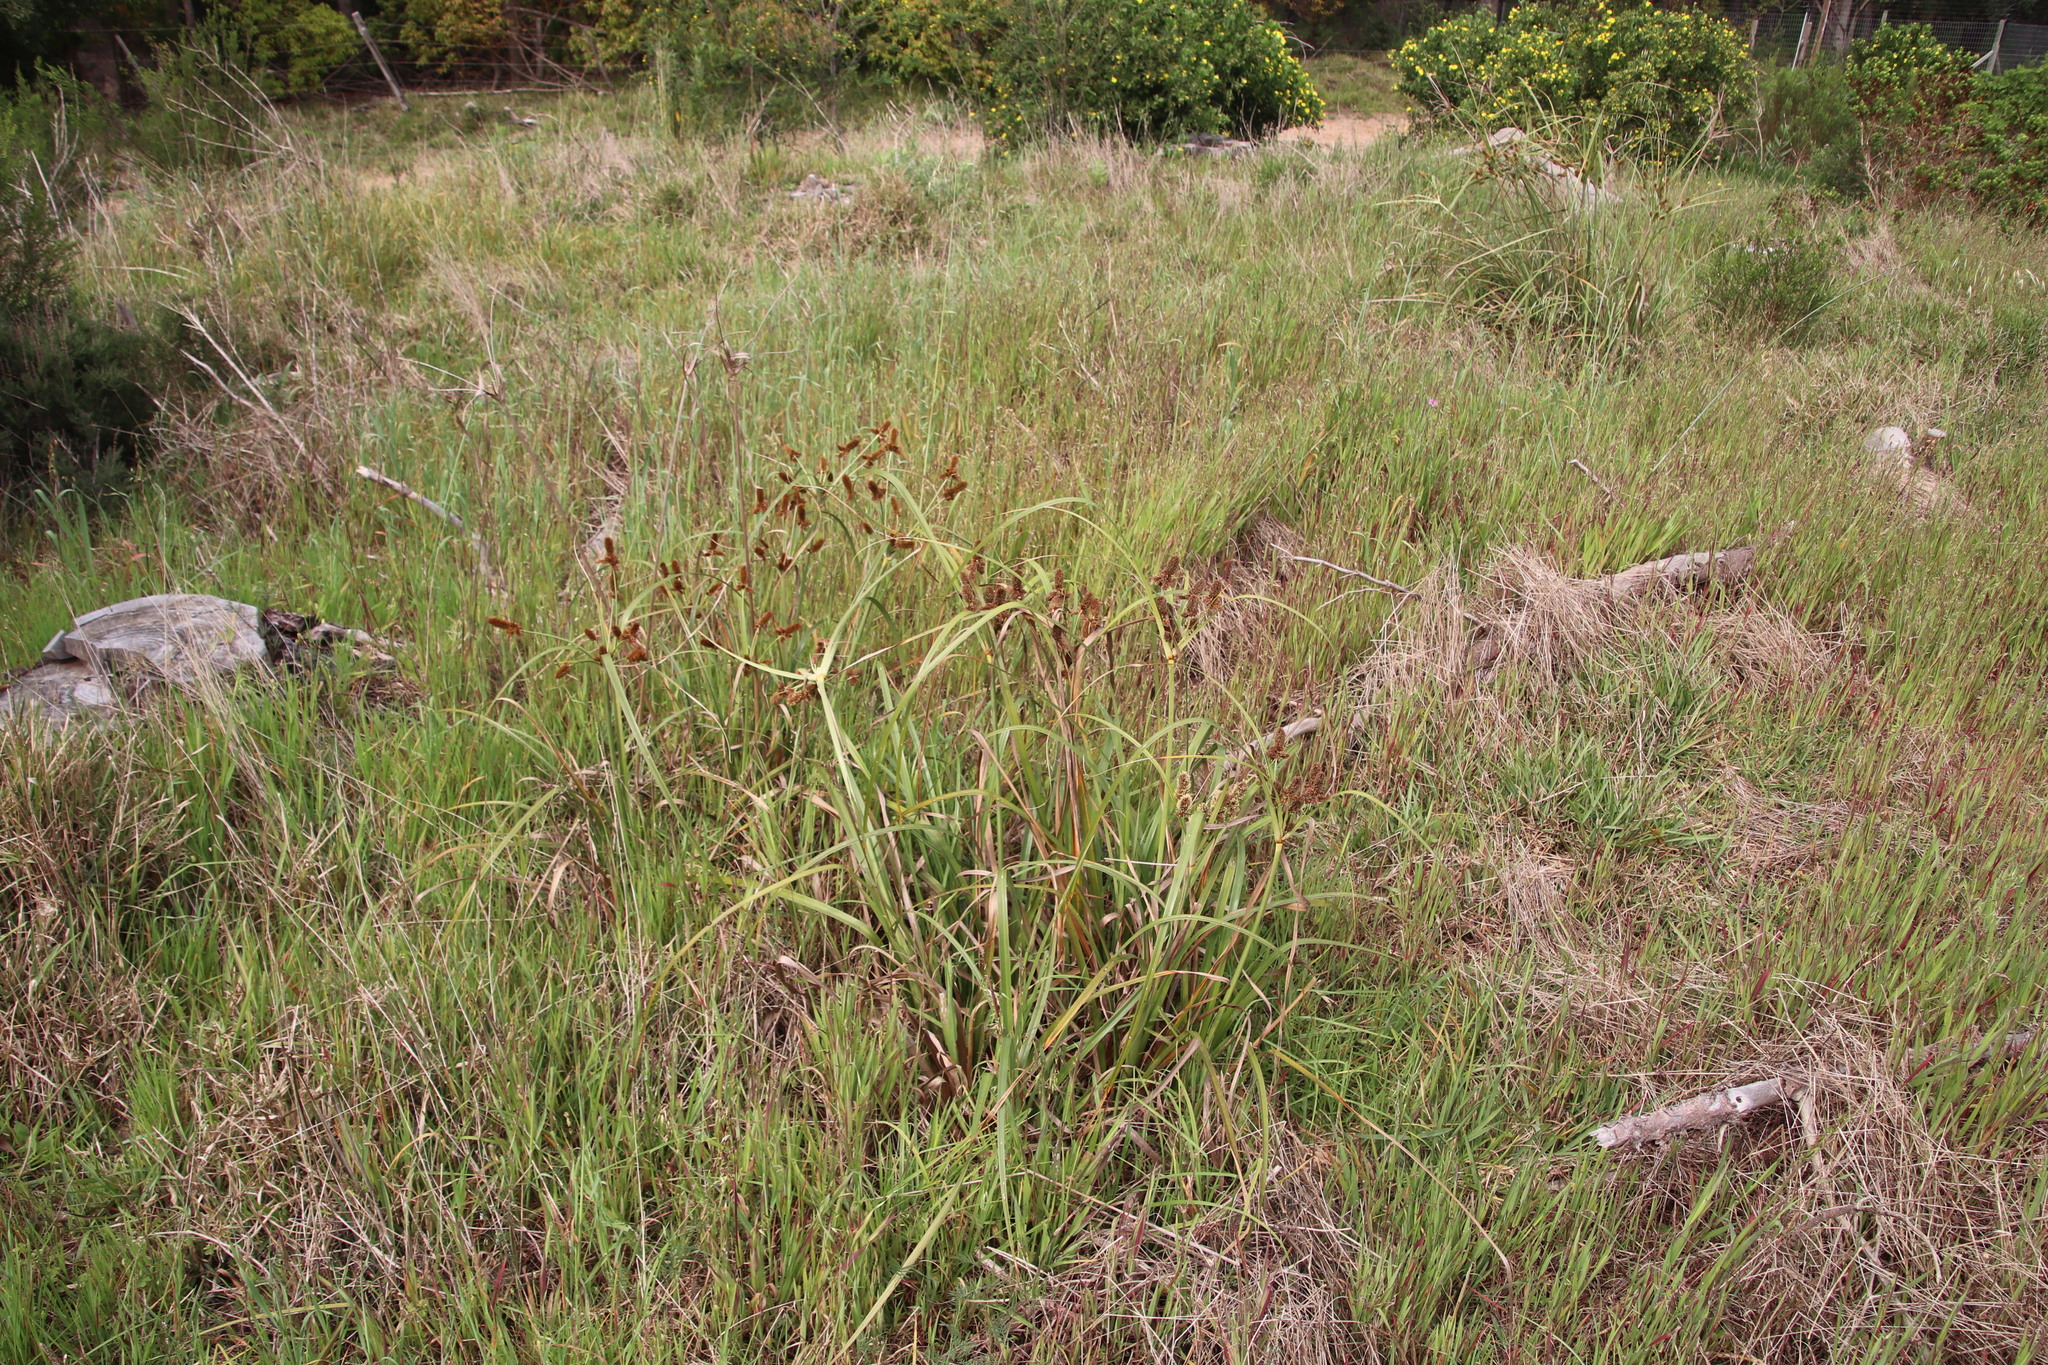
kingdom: Plantae
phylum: Tracheophyta
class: Liliopsida
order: Poales
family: Cyperaceae
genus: Cyperus
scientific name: Cyperus thunbergii
